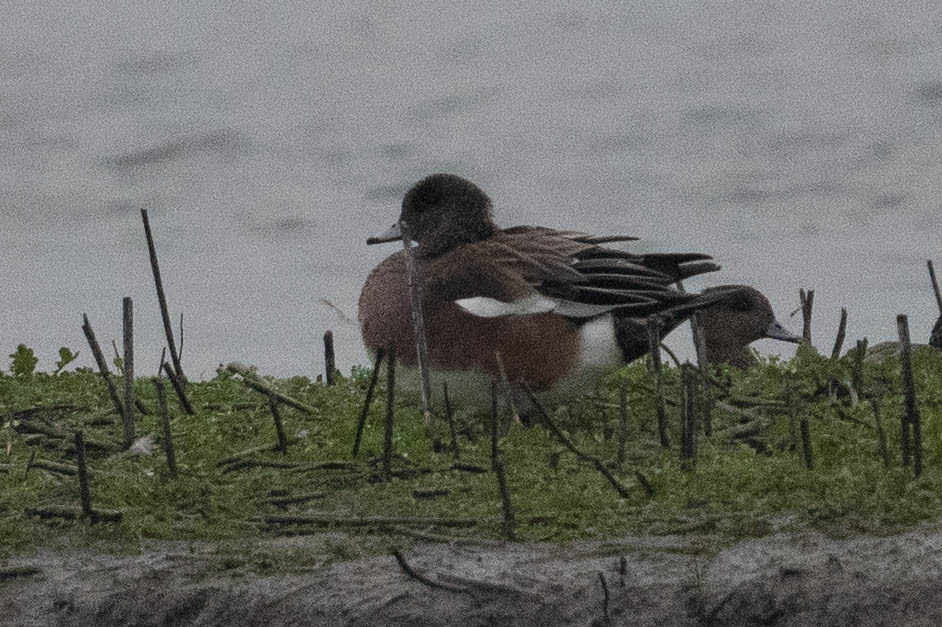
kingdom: Animalia
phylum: Chordata
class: Aves
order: Anseriformes
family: Anatidae
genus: Mareca
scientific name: Mareca americana
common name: American wigeon
